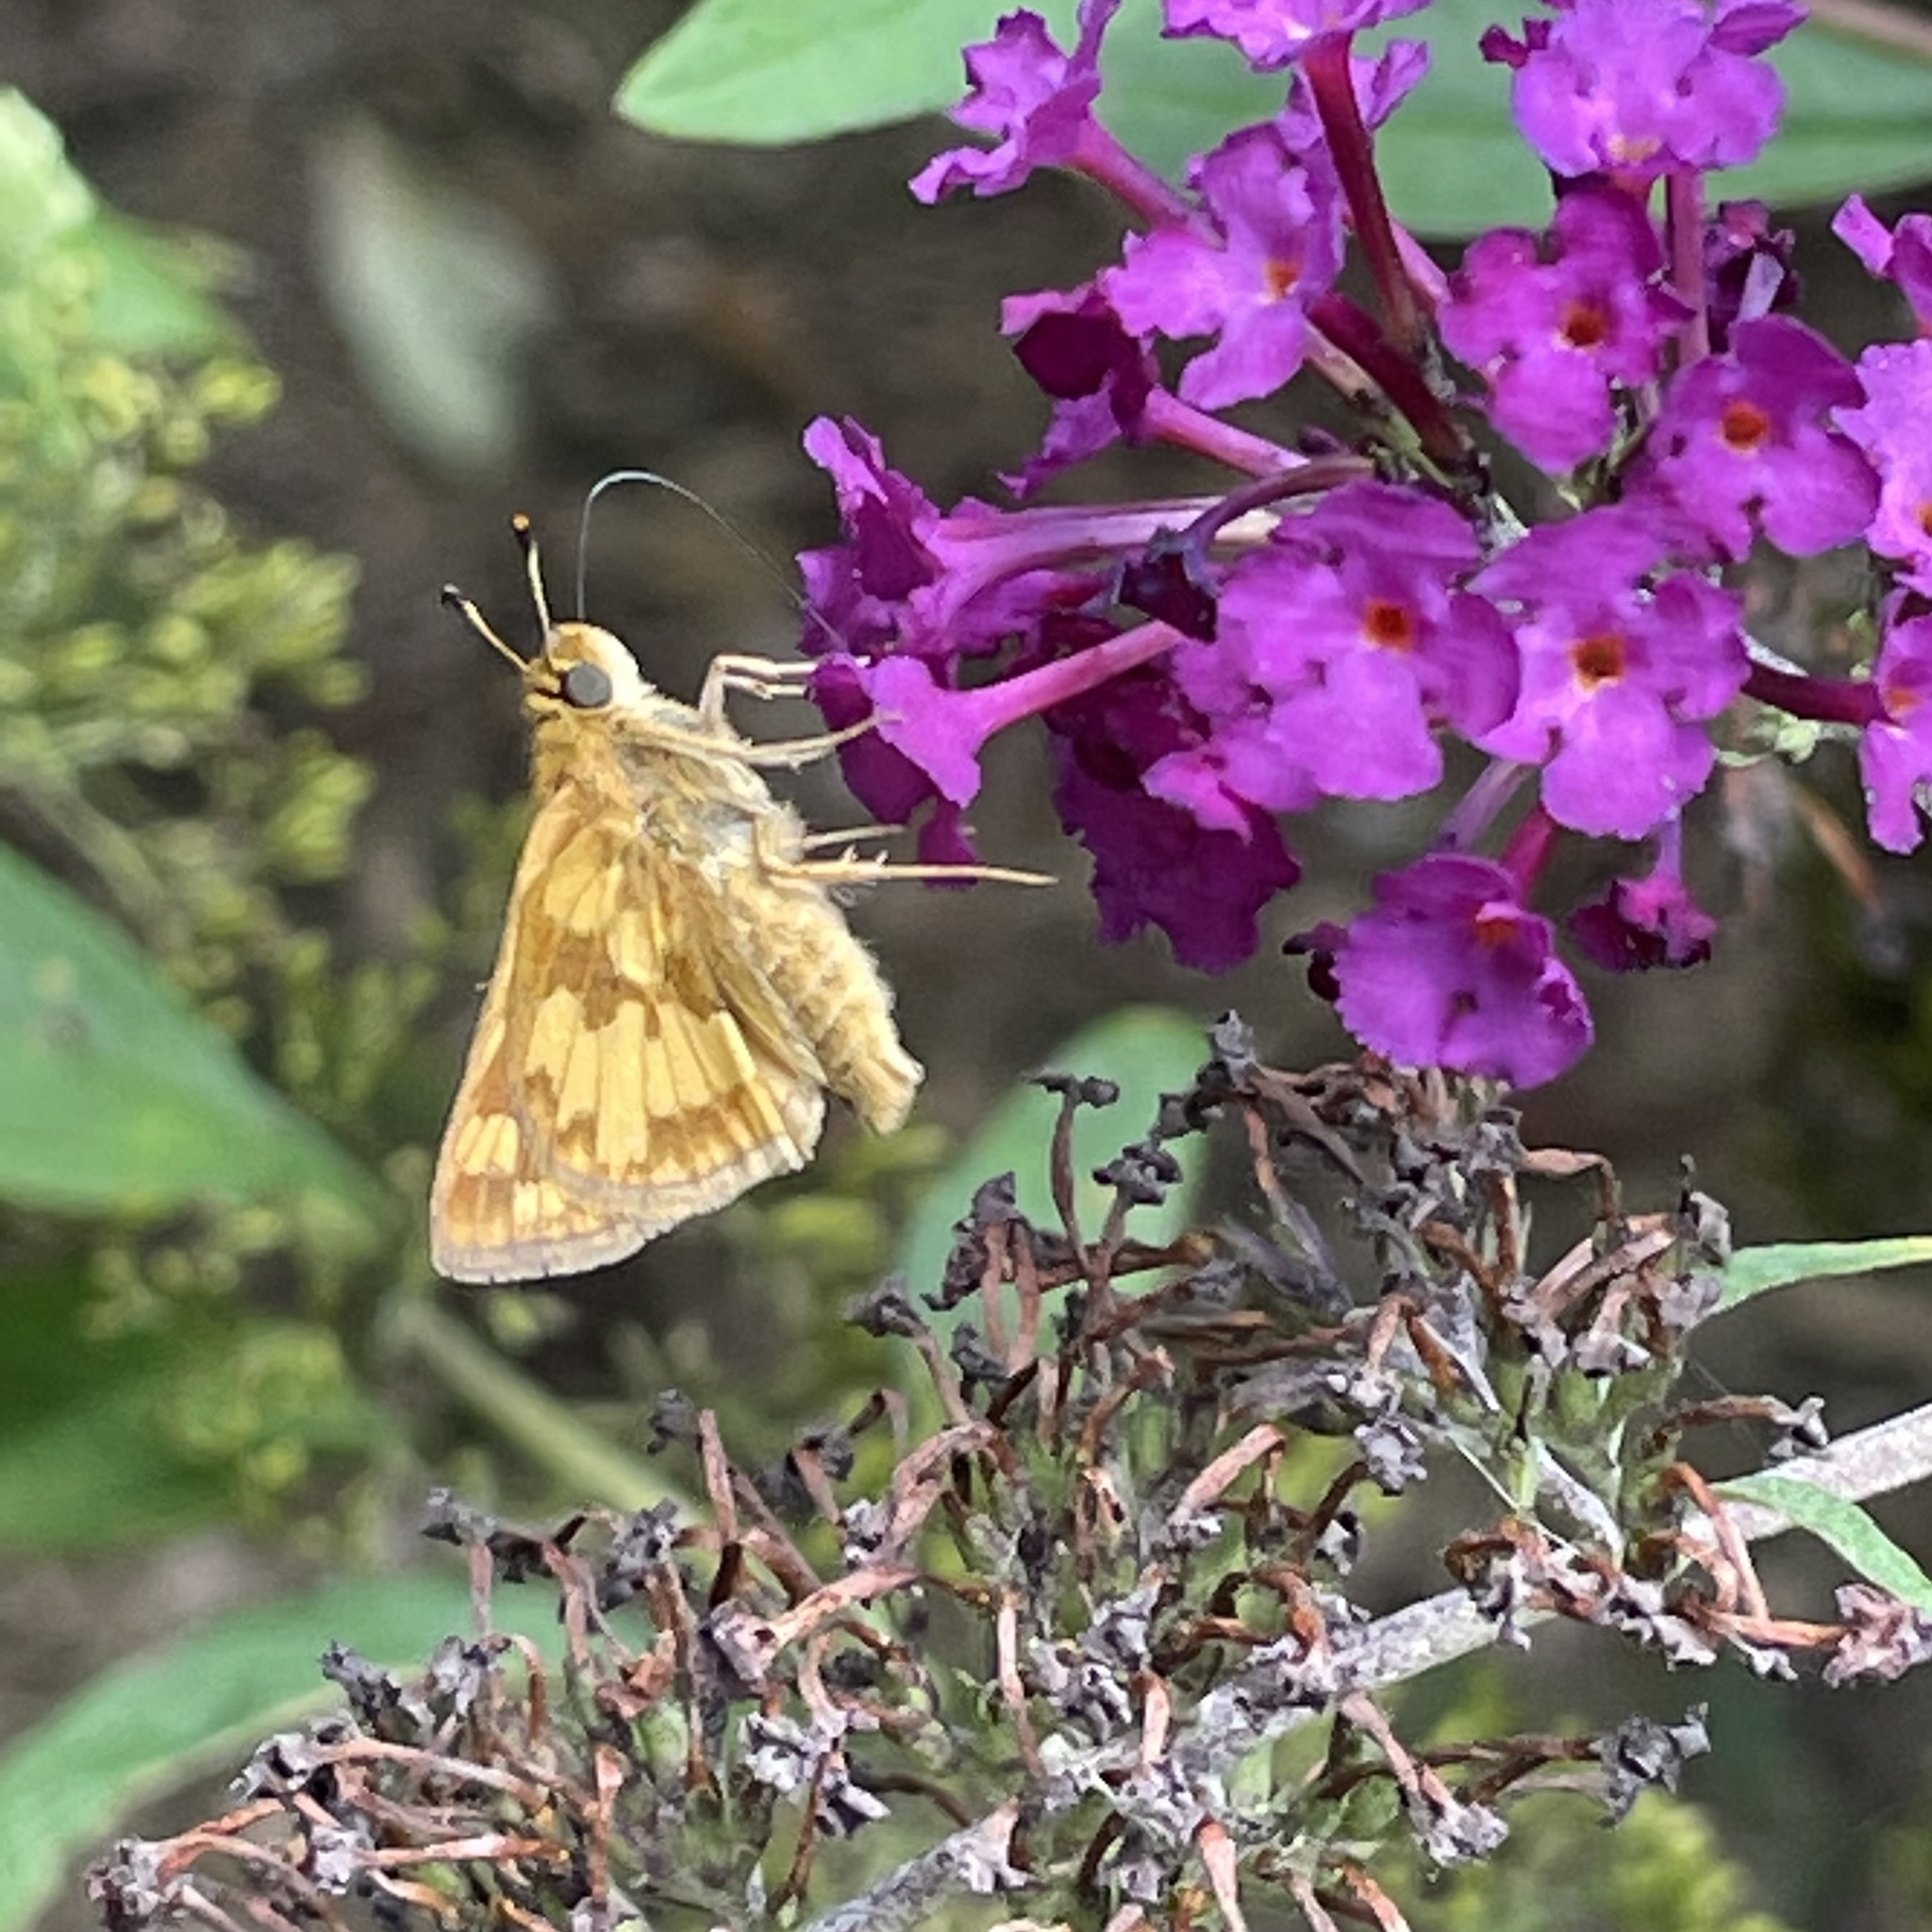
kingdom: Animalia
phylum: Arthropoda
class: Insecta
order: Lepidoptera
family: Hesperiidae
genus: Polites
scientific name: Polites coras
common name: Peck's skipper
